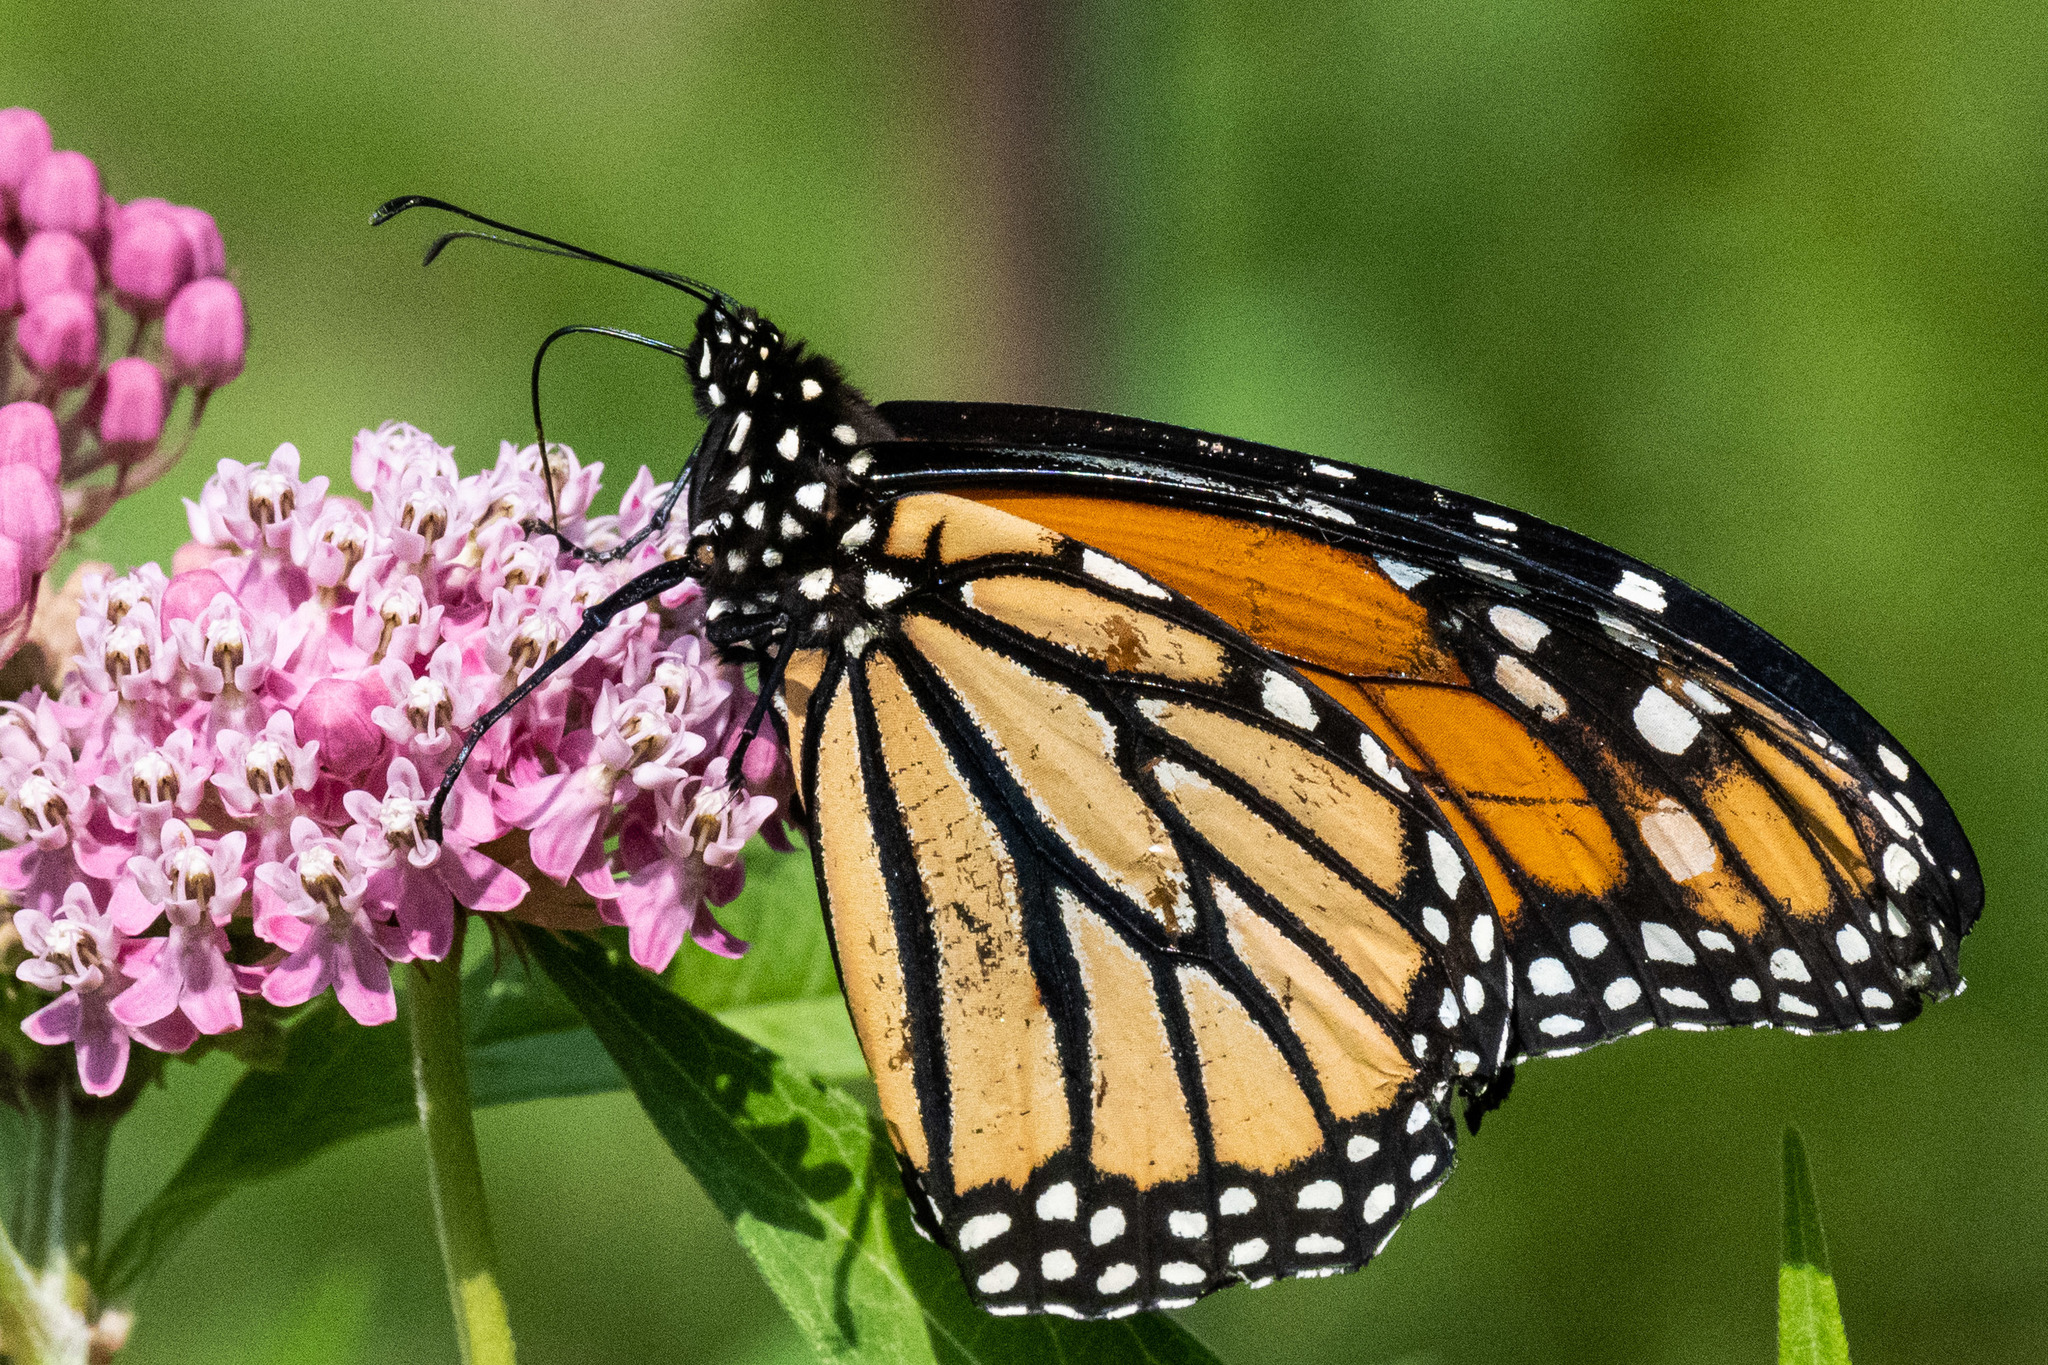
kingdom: Animalia
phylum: Arthropoda
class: Insecta
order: Lepidoptera
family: Nymphalidae
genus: Danaus
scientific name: Danaus plexippus
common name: Monarch
